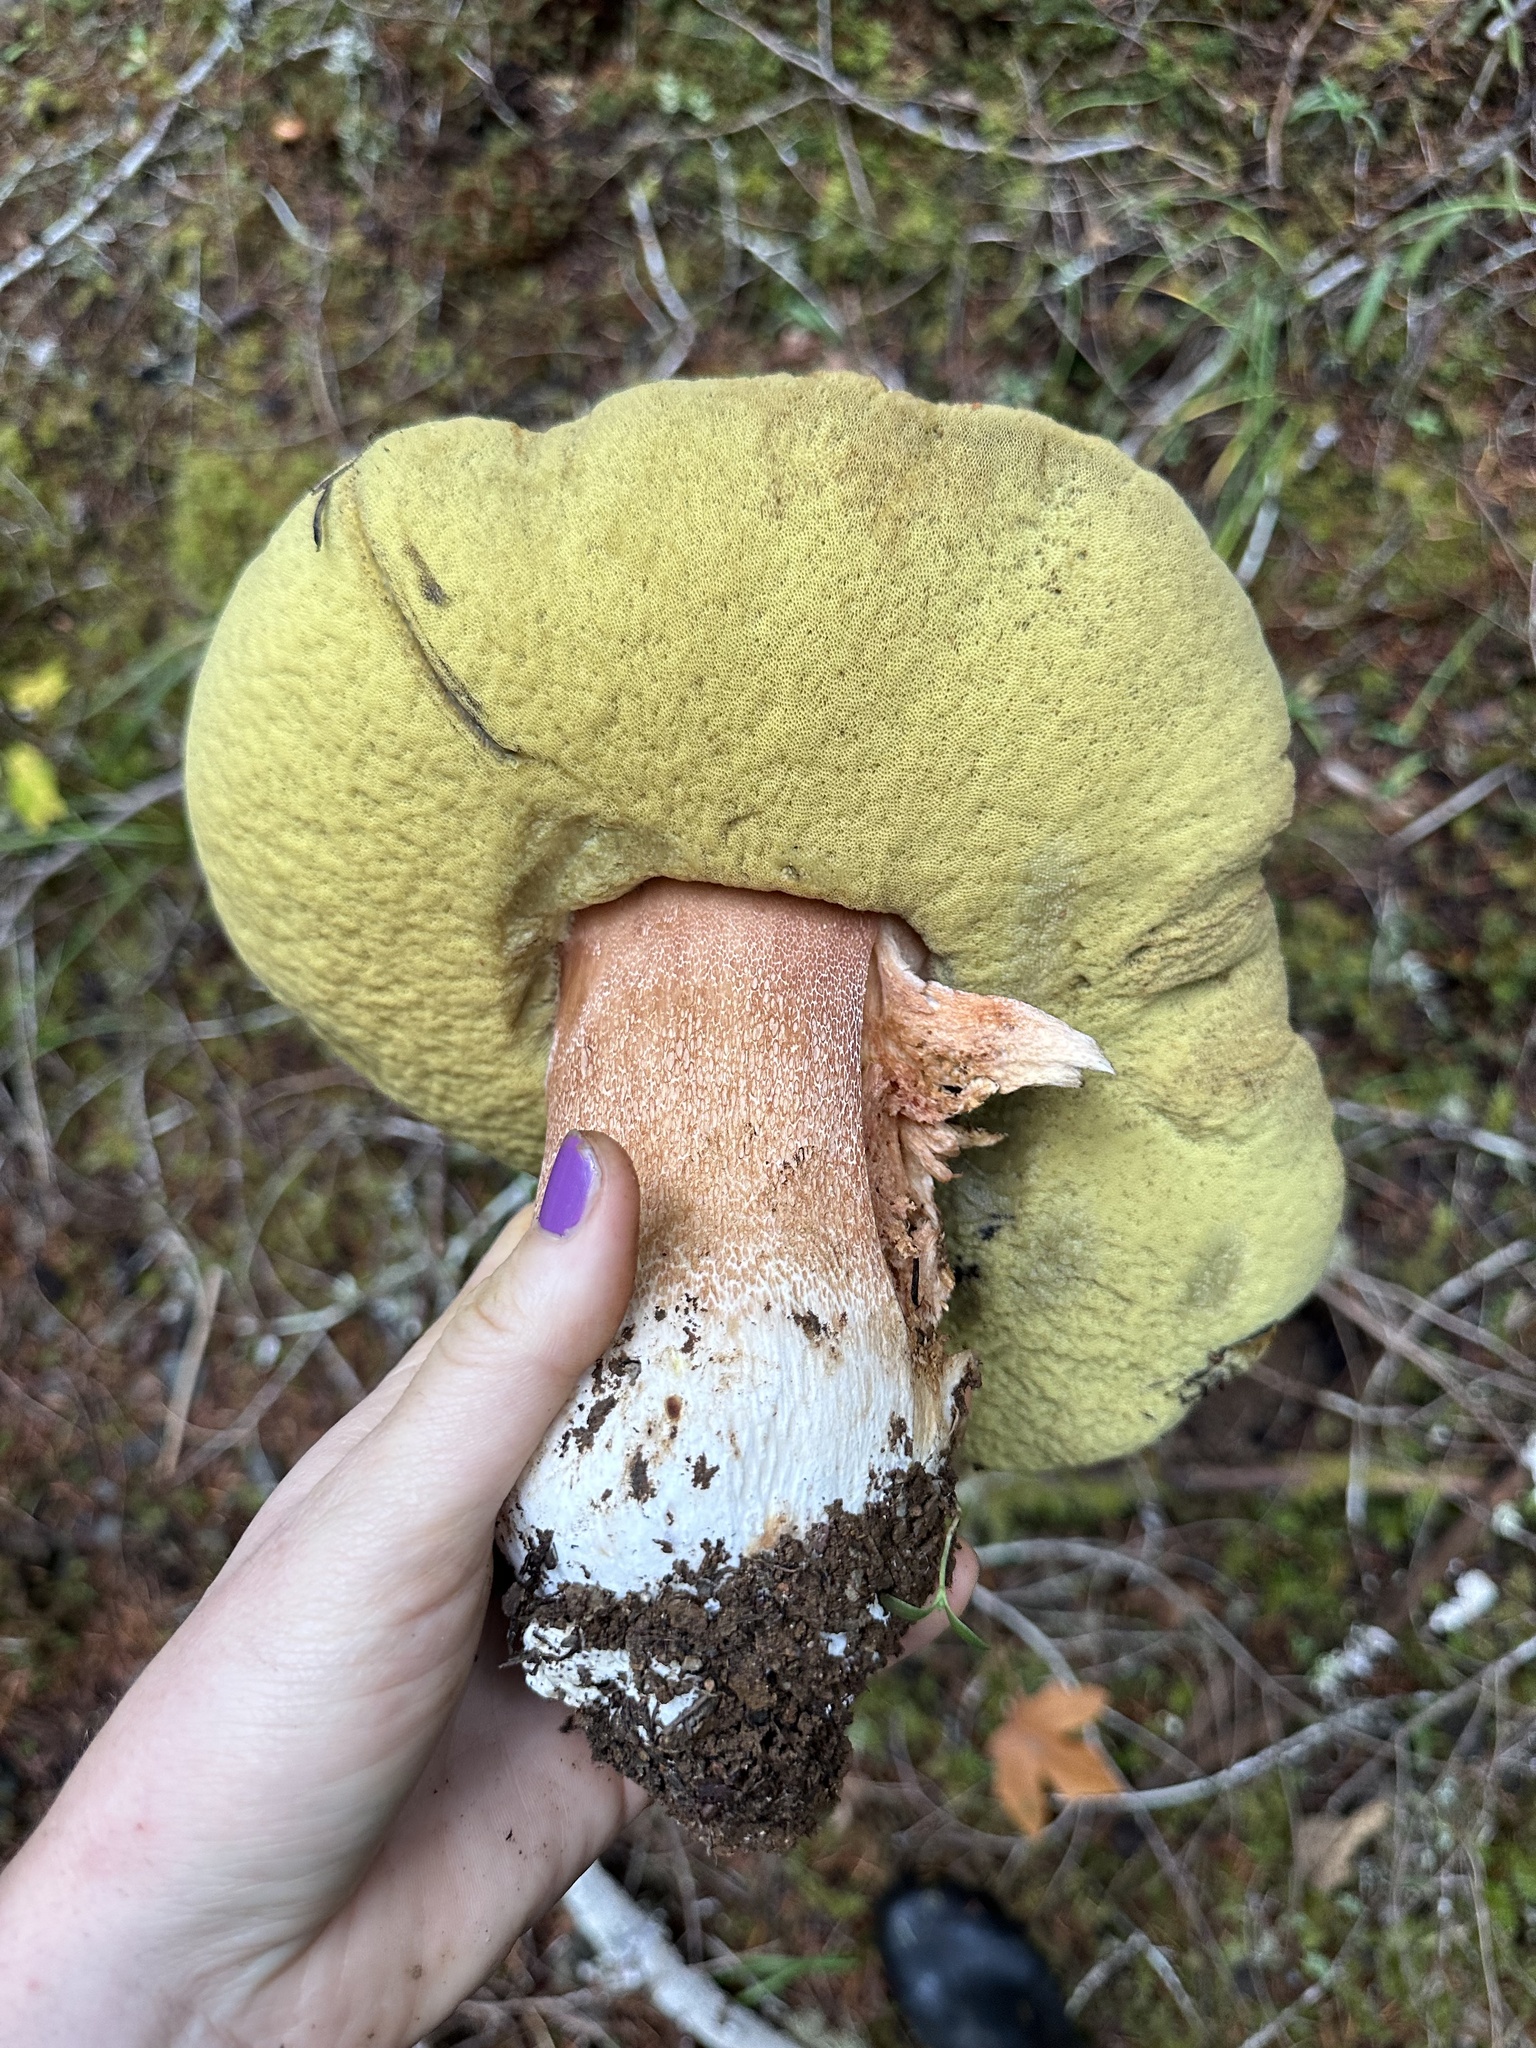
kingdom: Fungi
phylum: Basidiomycota
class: Agaricomycetes
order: Boletales
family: Boletaceae
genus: Boletus
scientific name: Boletus regineus
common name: Queen bolete
